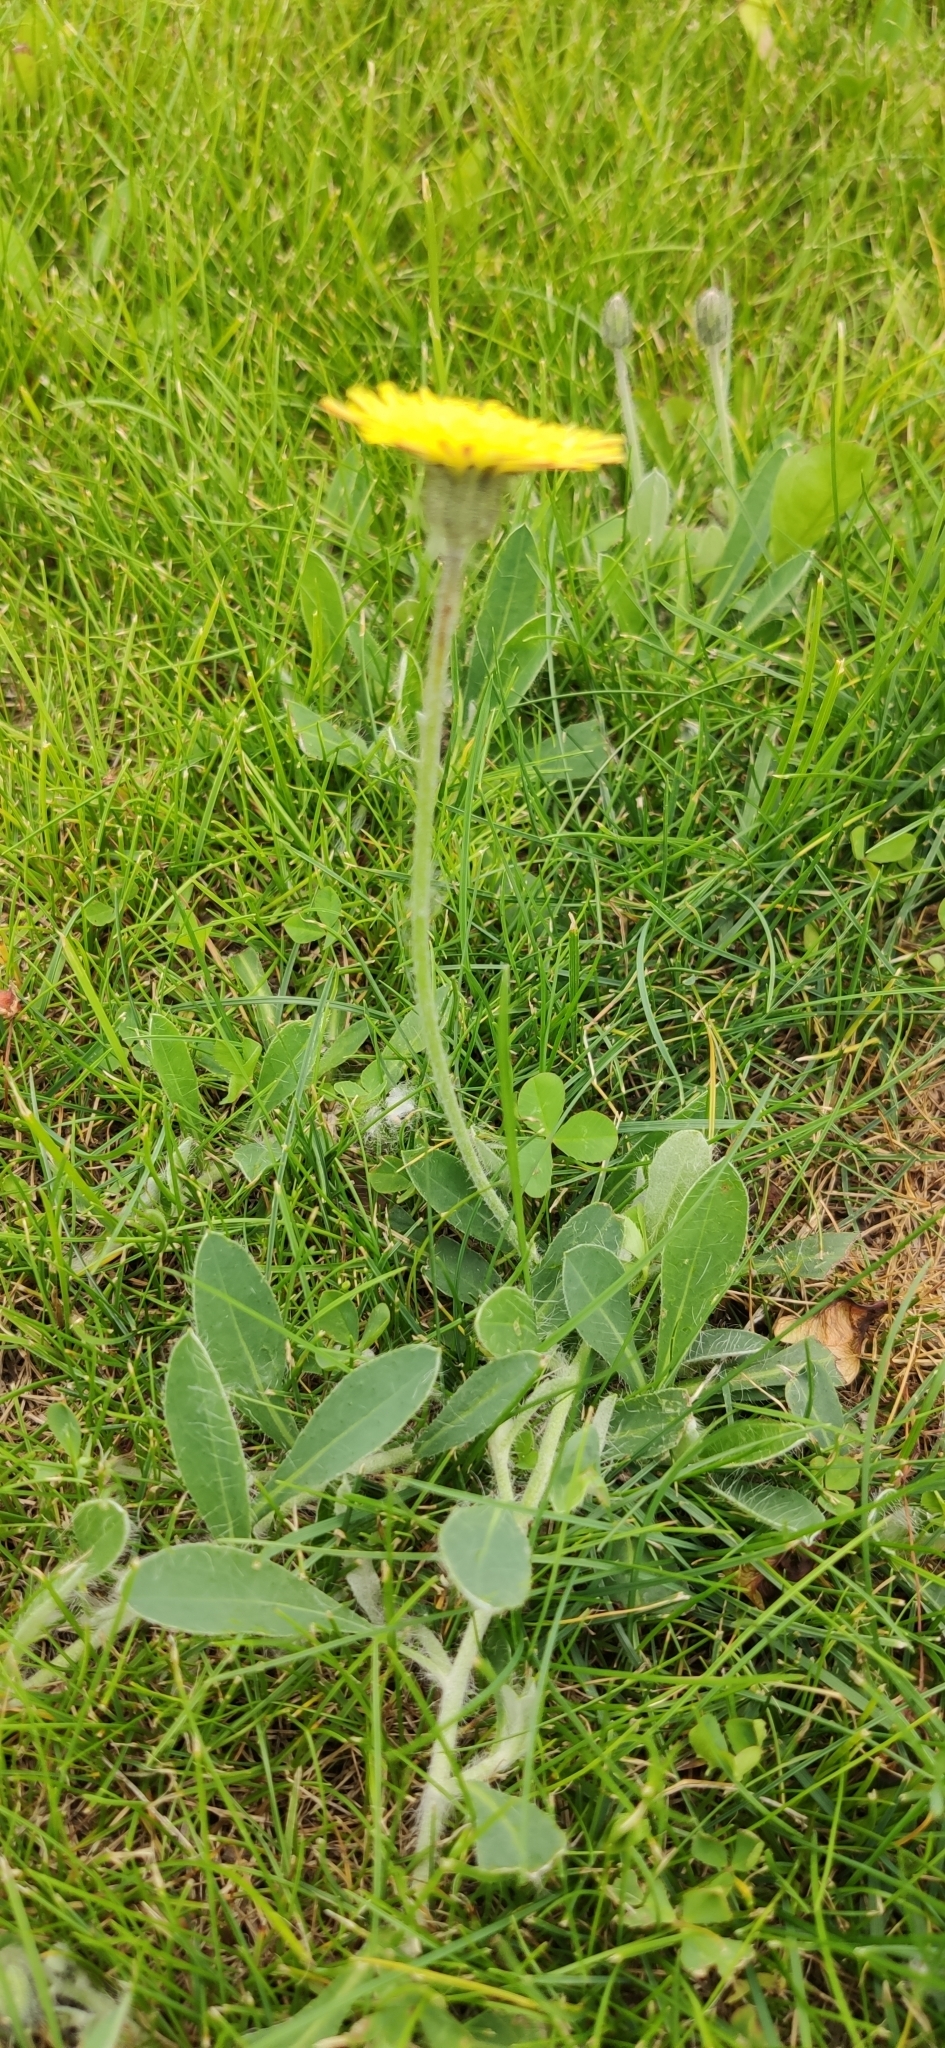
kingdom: Plantae
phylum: Tracheophyta
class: Magnoliopsida
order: Asterales
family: Asteraceae
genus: Pilosella
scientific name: Pilosella officinarum
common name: Mouse-ear hawkweed
